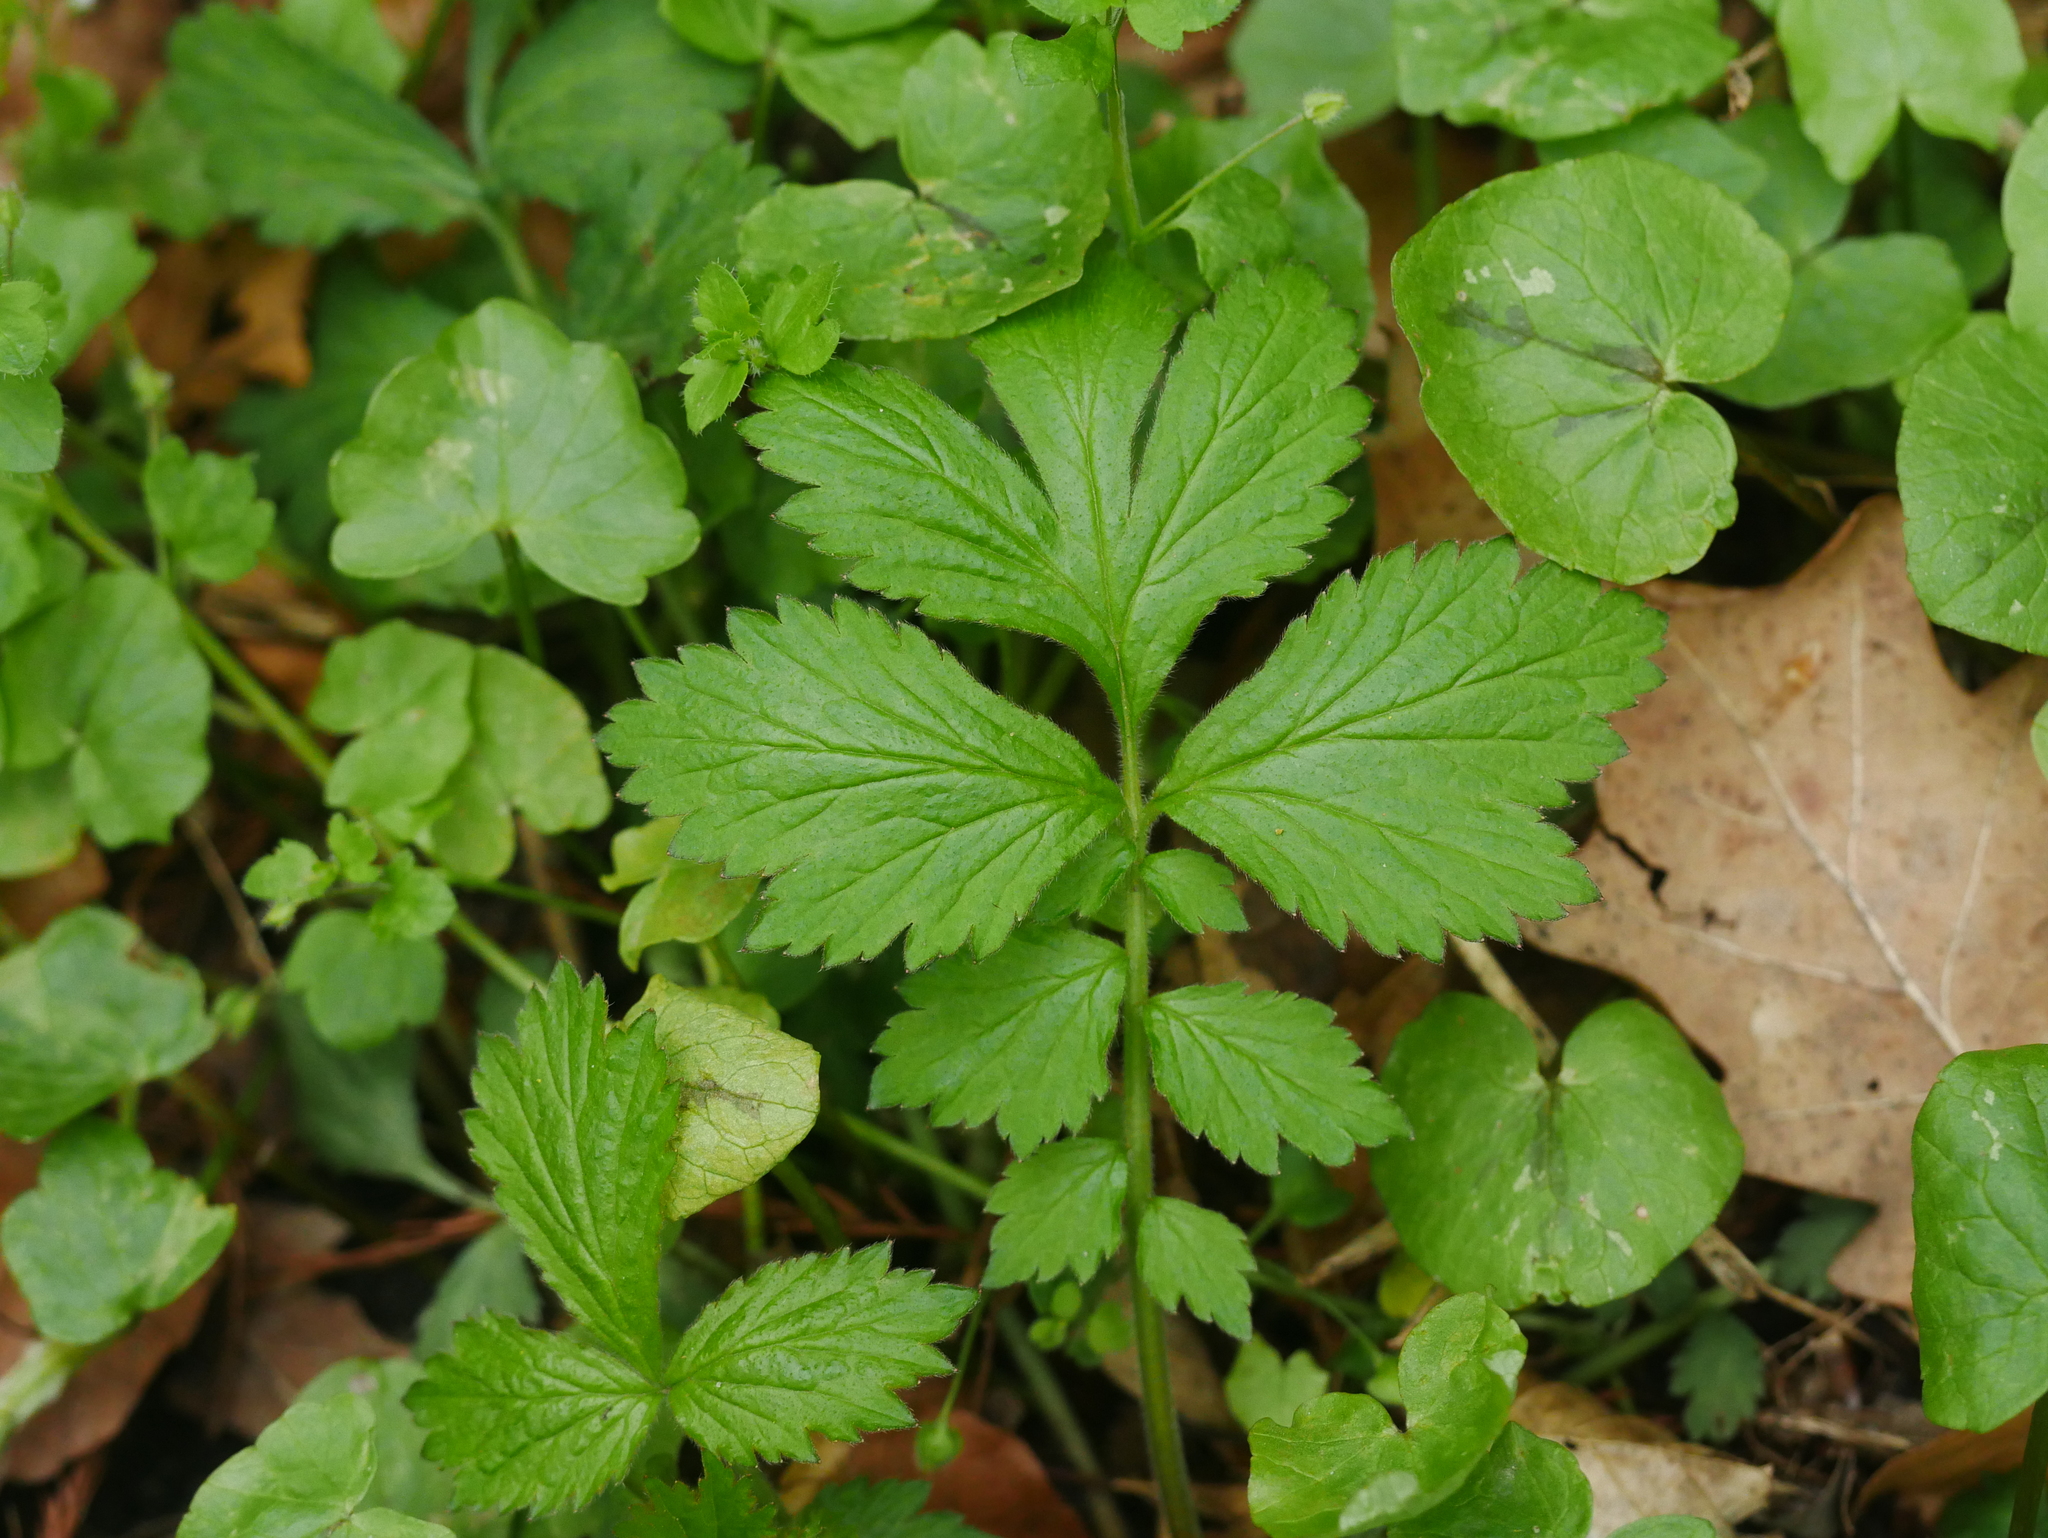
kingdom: Plantae
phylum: Tracheophyta
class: Magnoliopsida
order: Rosales
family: Rosaceae
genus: Geum
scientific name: Geum urbanum
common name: Wood avens
